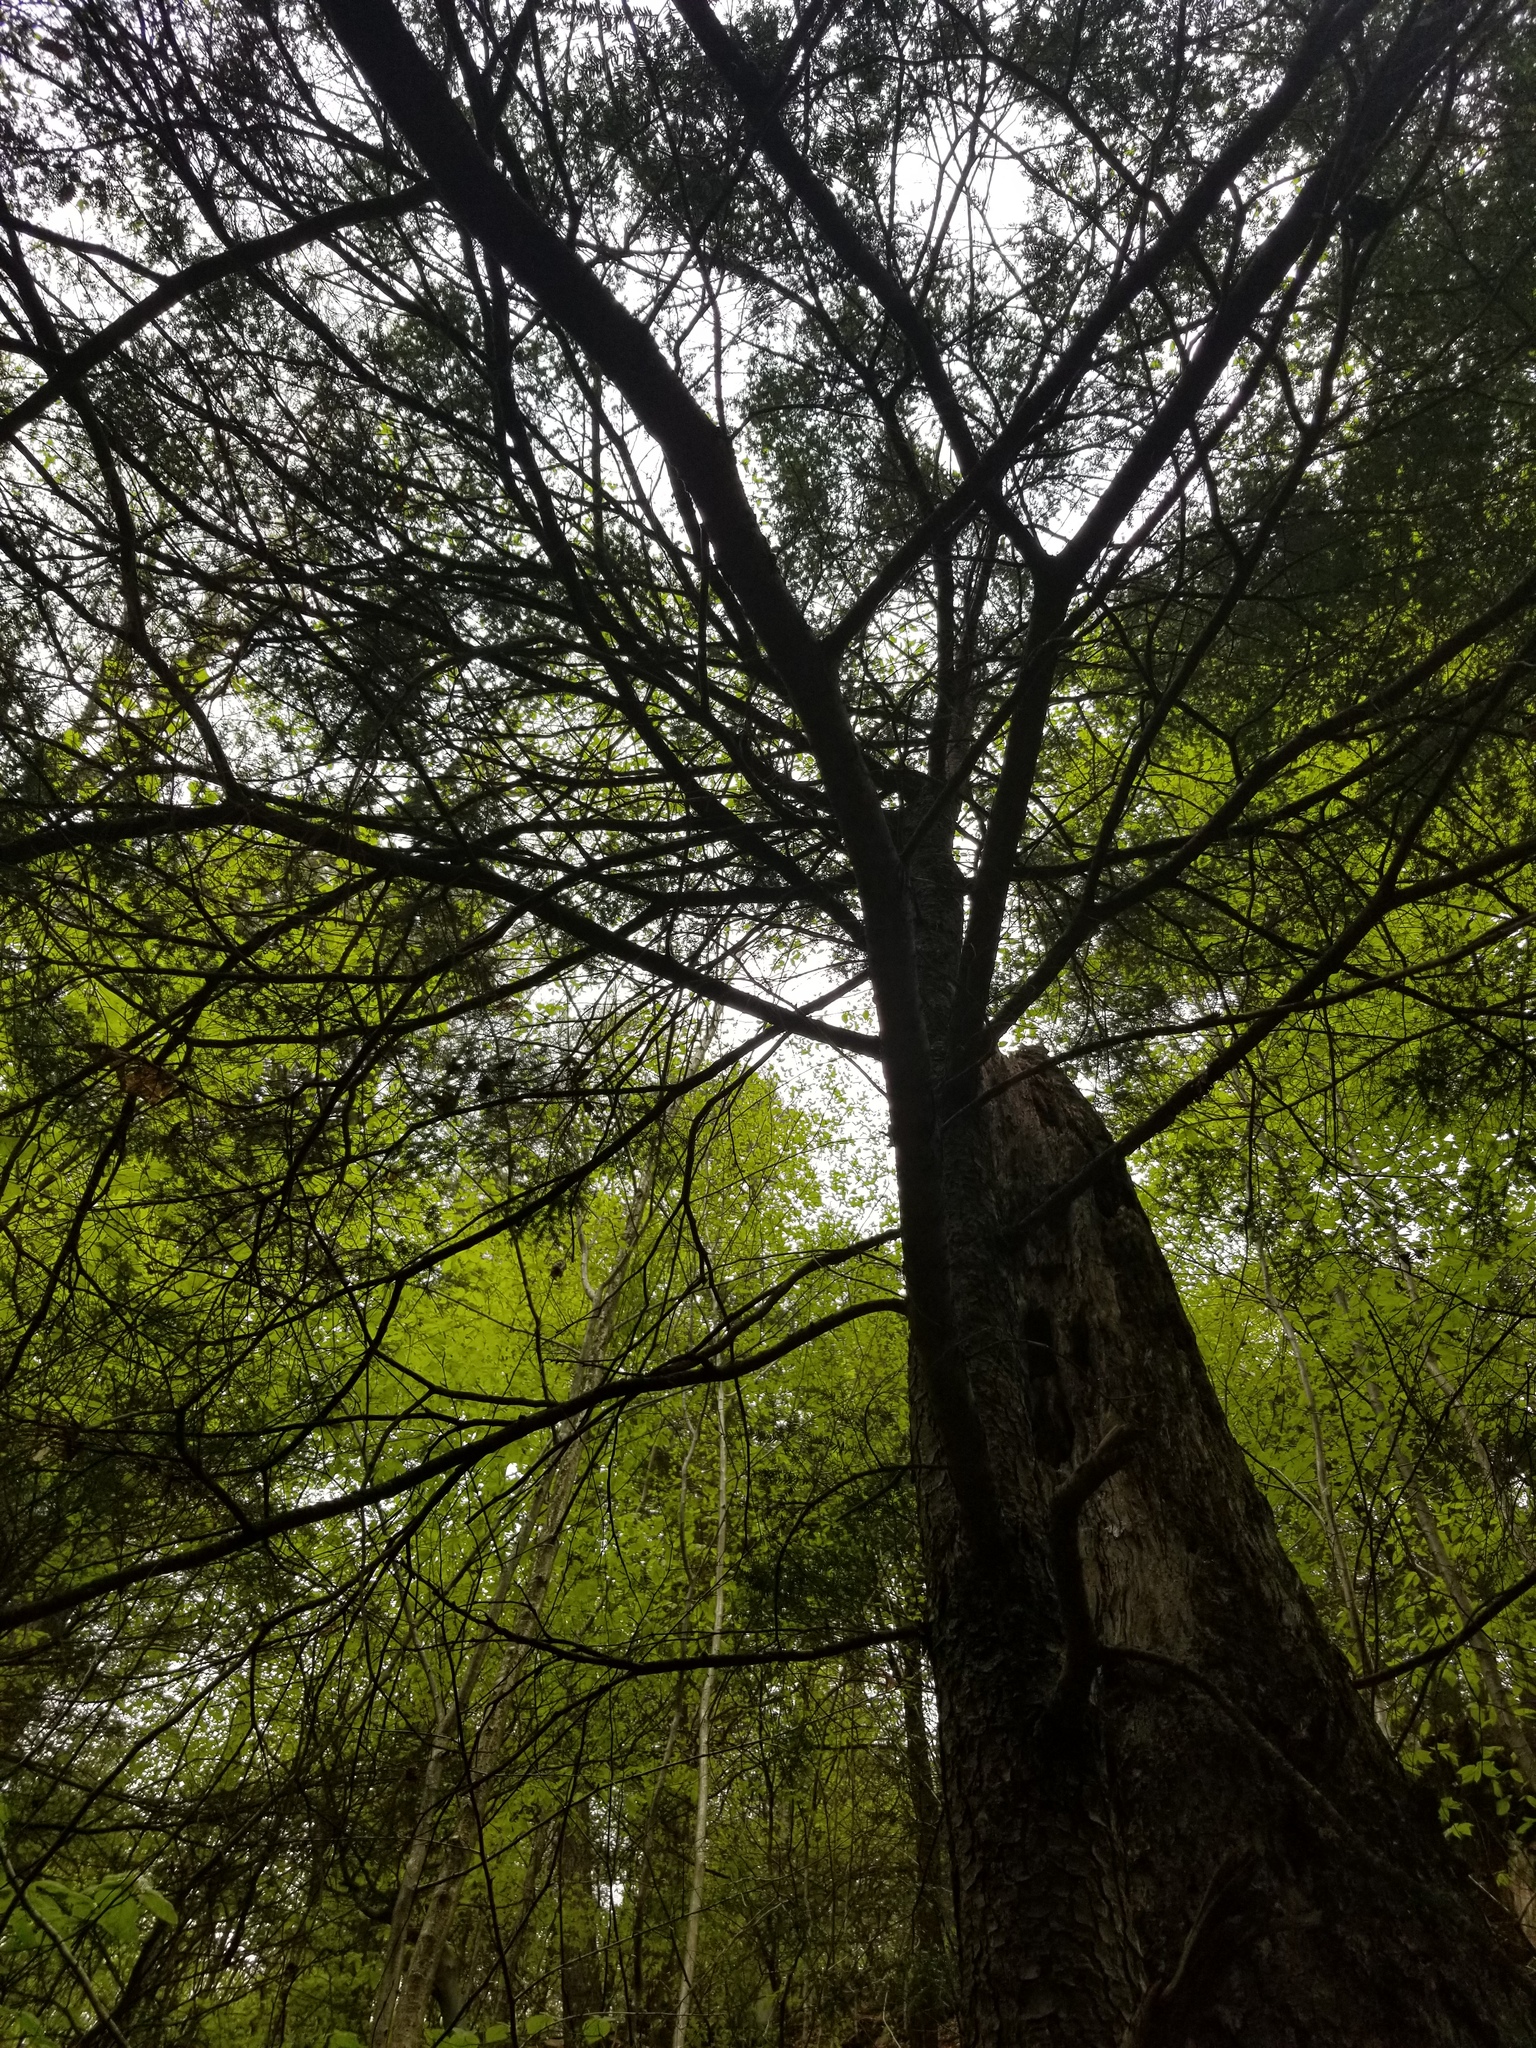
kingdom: Plantae
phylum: Tracheophyta
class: Pinopsida
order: Pinales
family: Pinaceae
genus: Tsuga
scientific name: Tsuga canadensis
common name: Eastern hemlock
